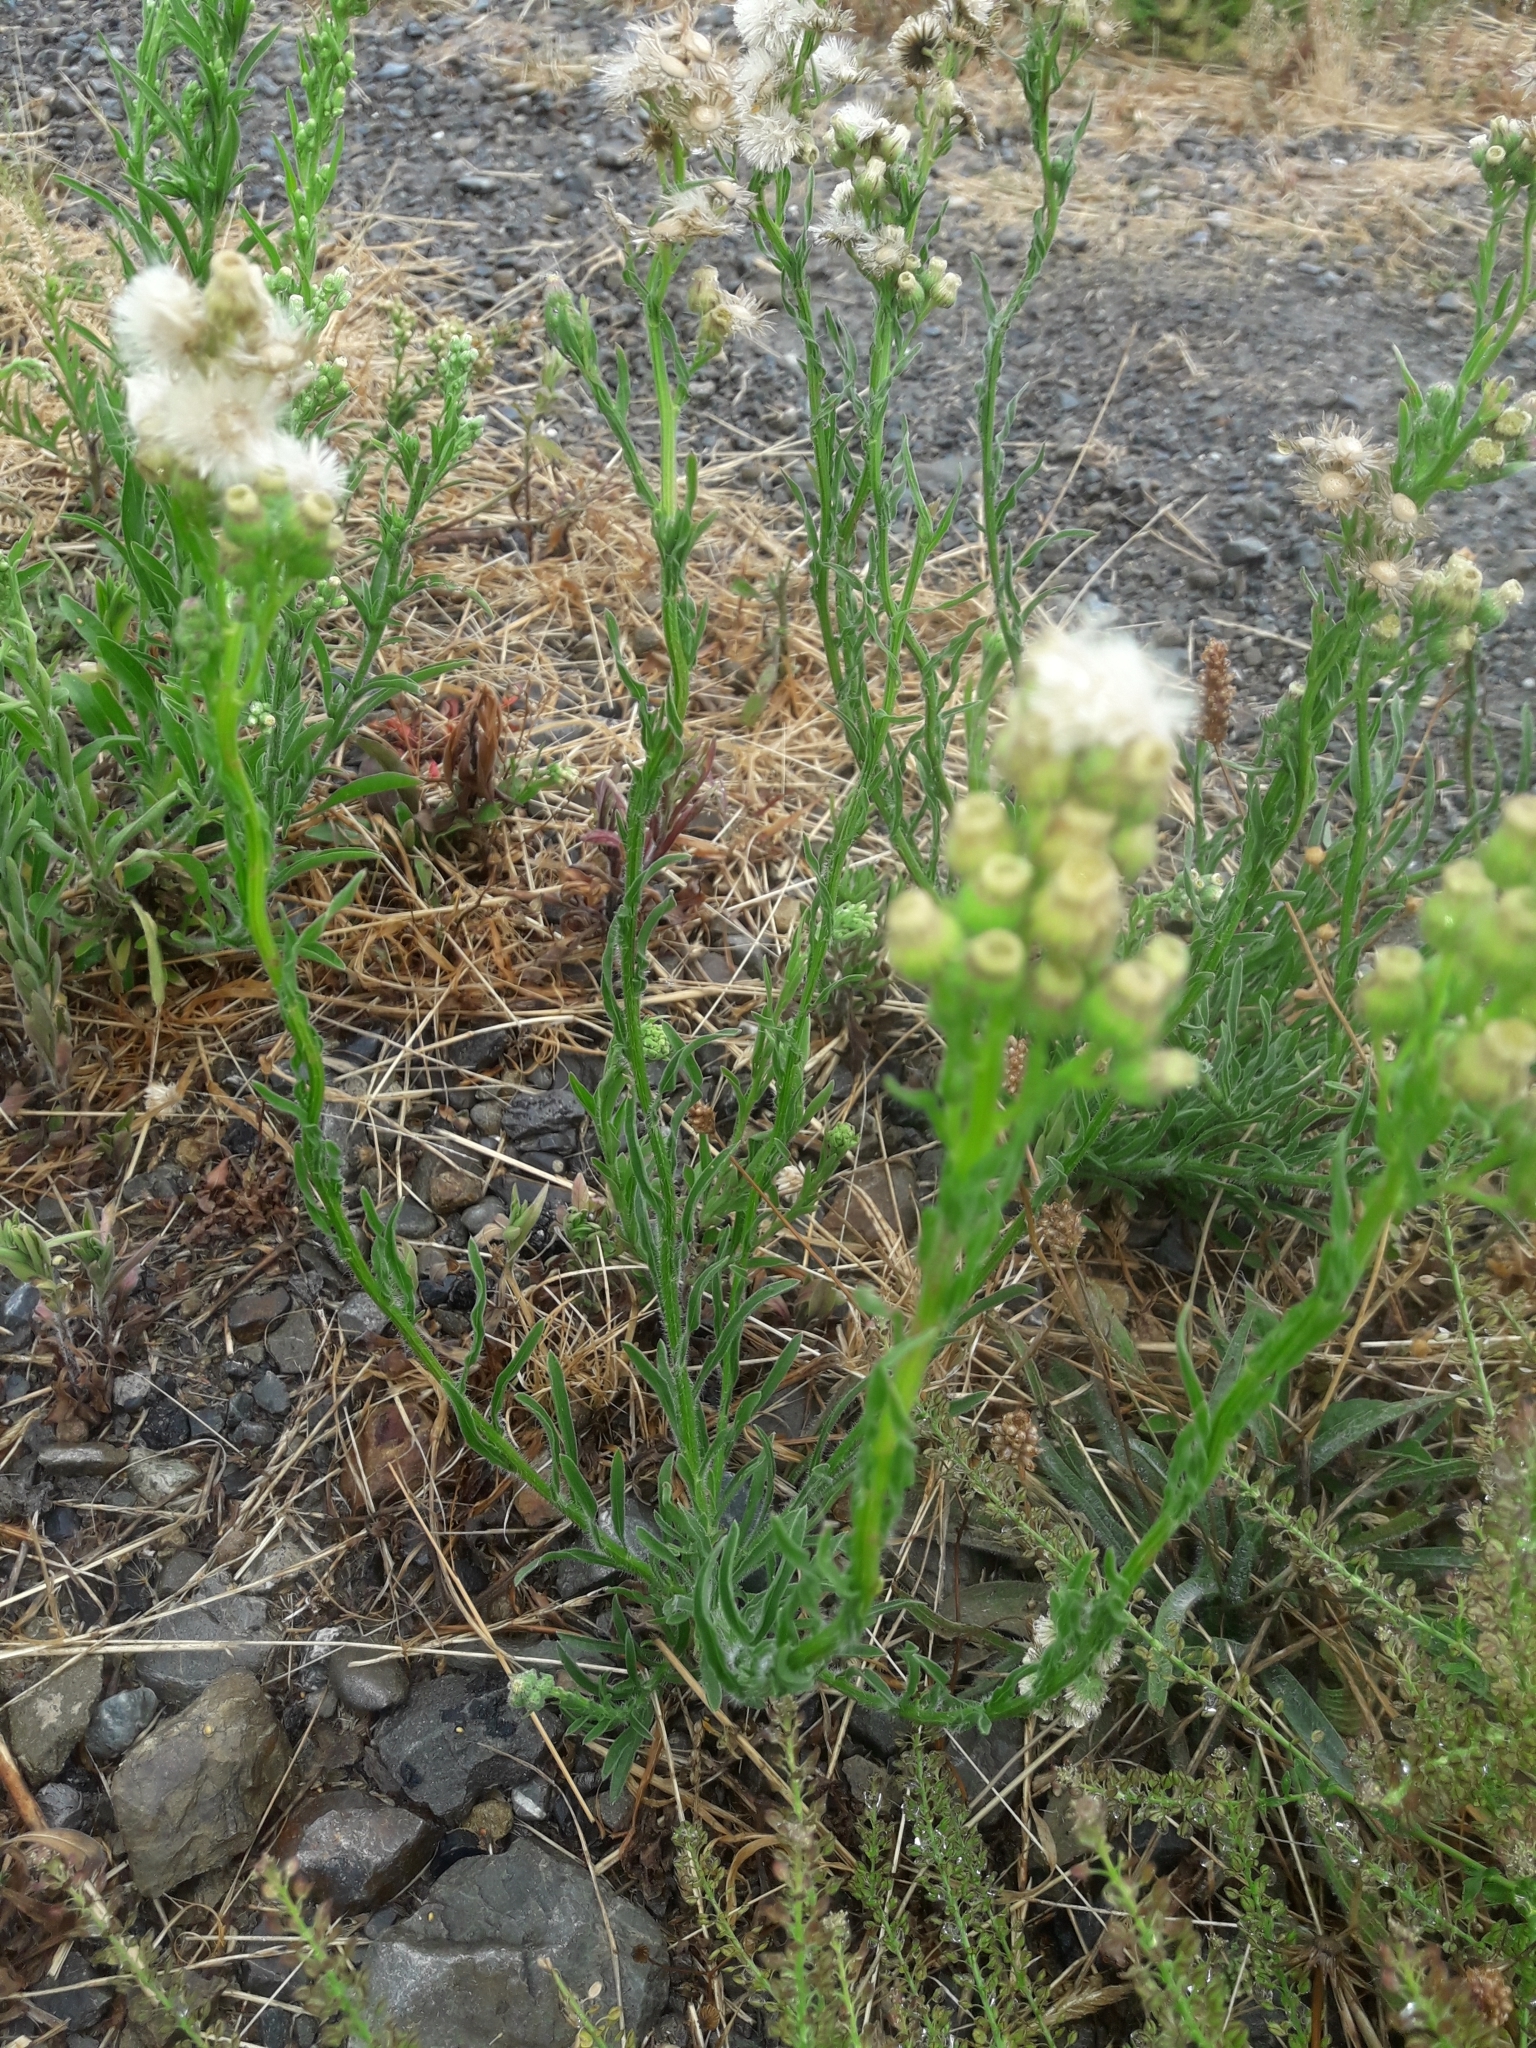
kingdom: Plantae
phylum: Tracheophyta
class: Magnoliopsida
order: Asterales
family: Asteraceae
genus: Erigeron
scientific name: Erigeron bonariensis
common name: Argentine fleabane
